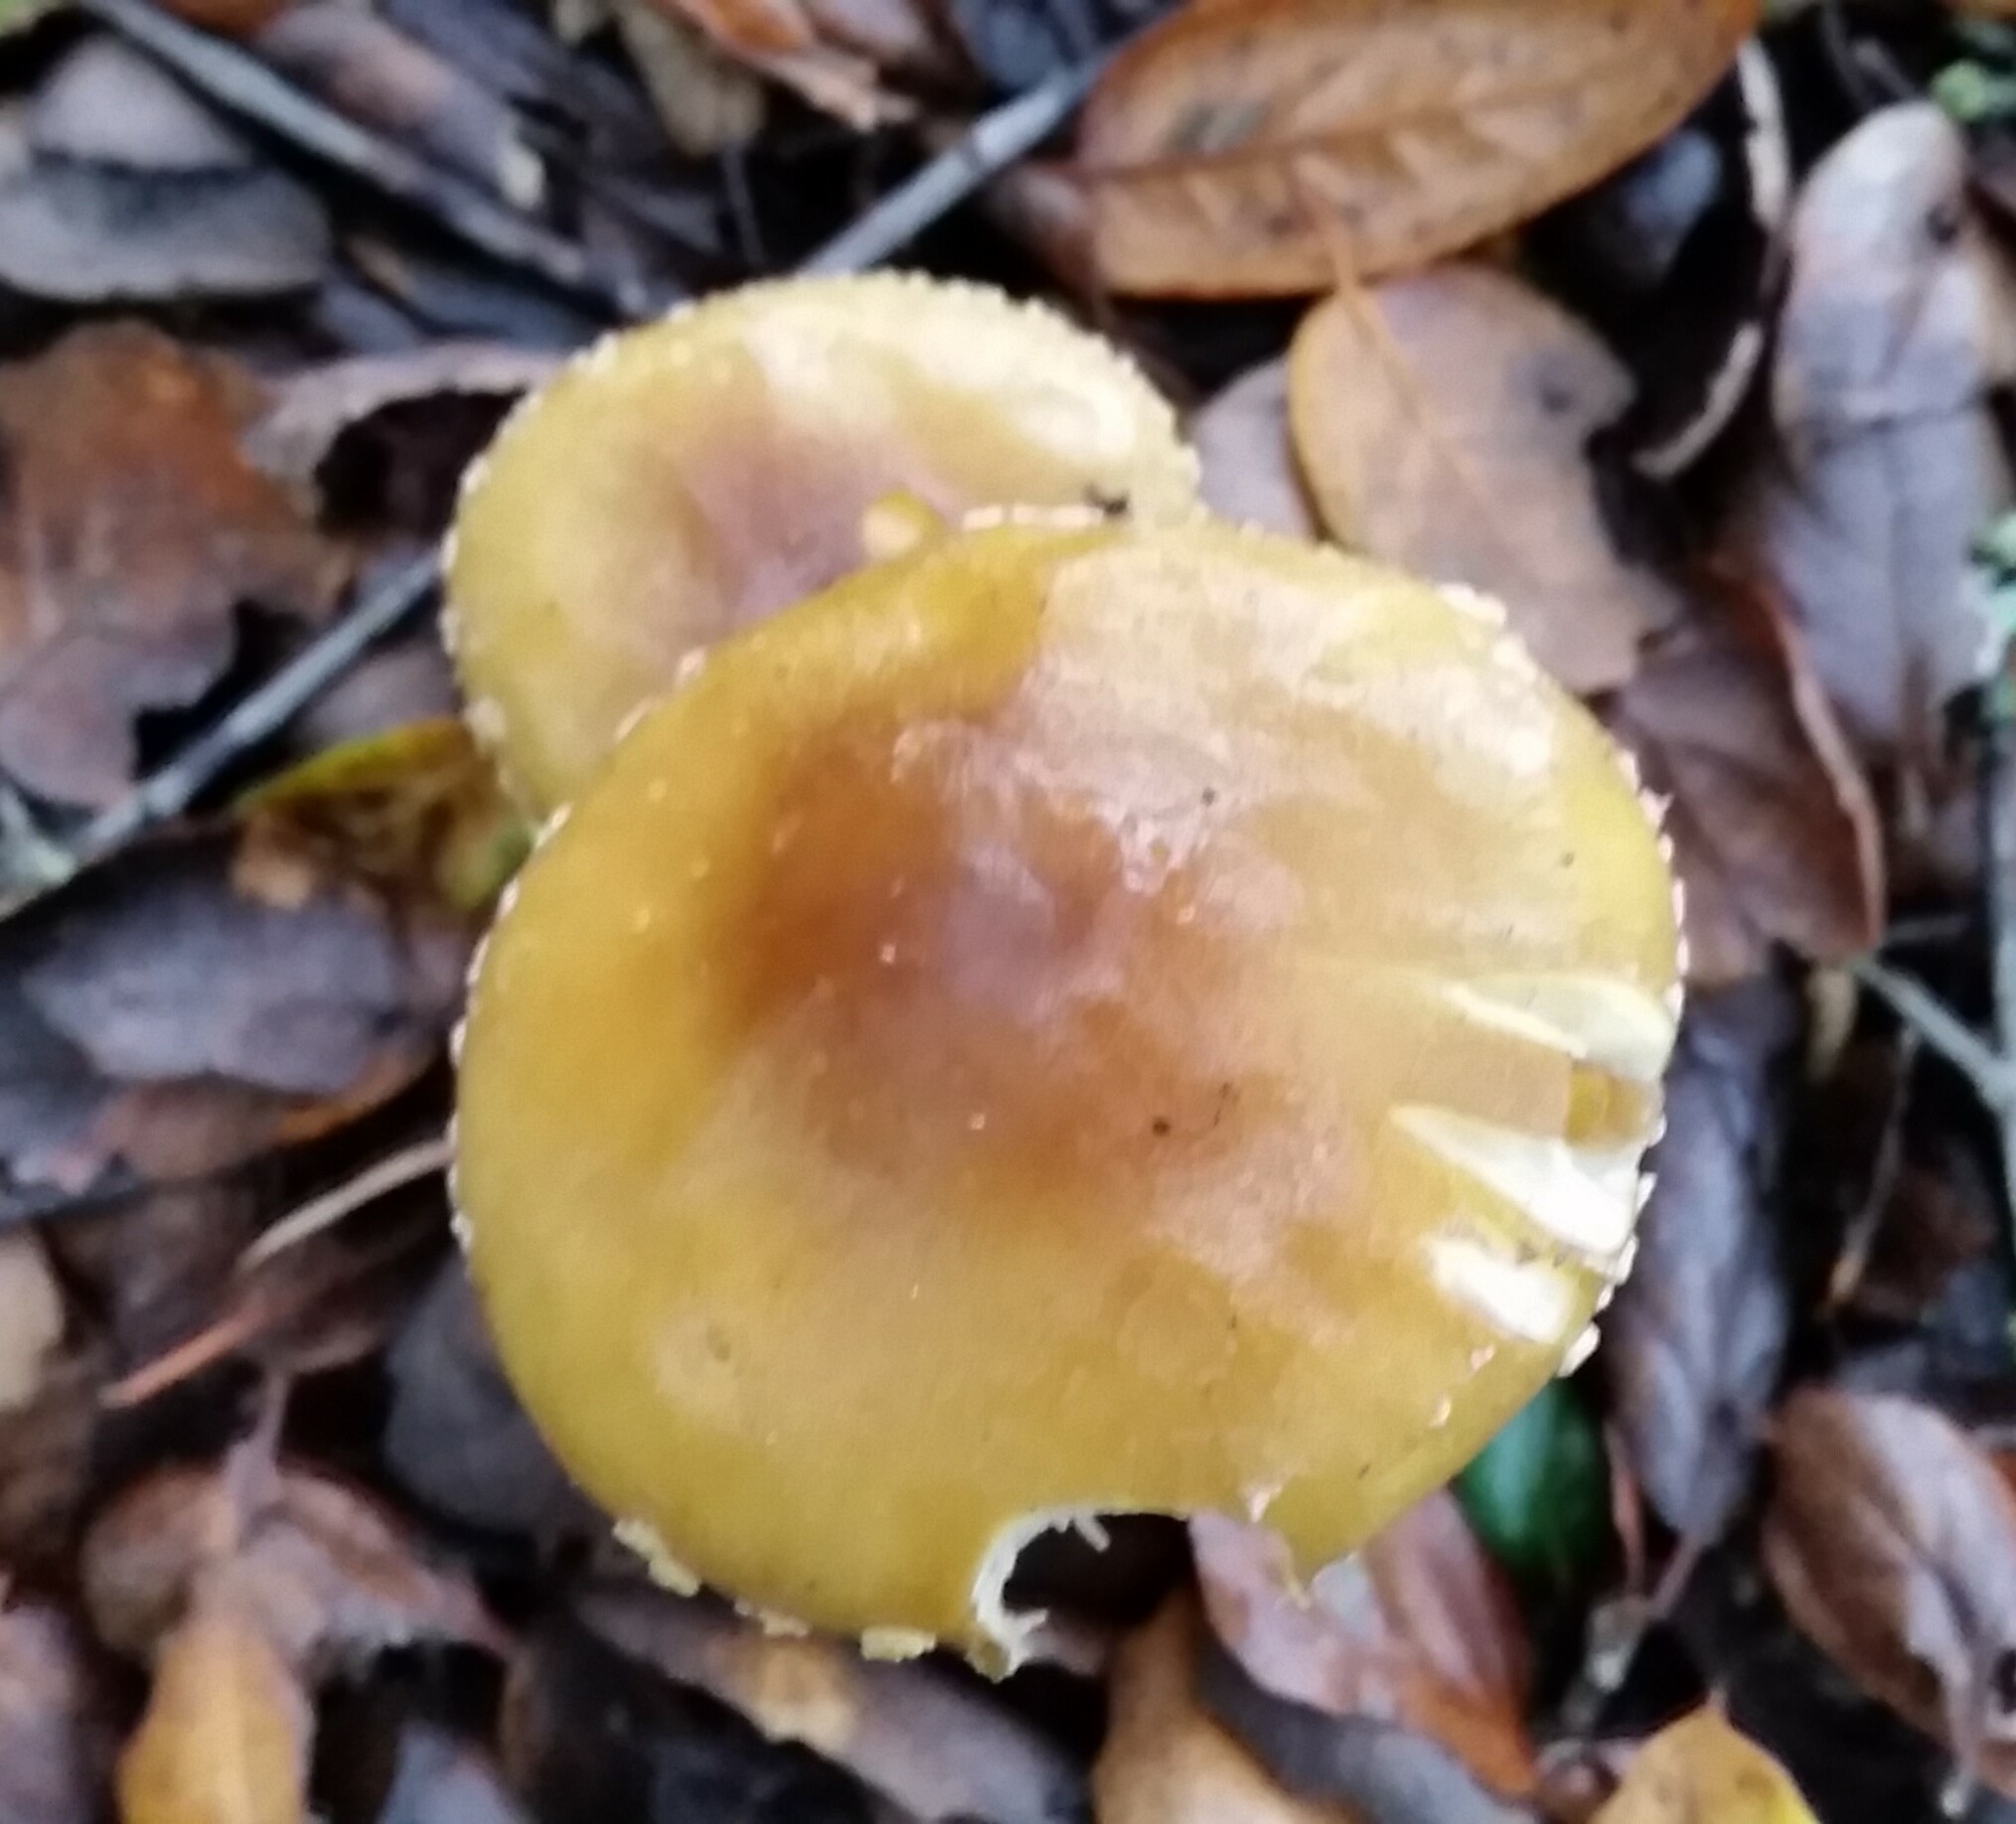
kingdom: Fungi
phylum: Basidiomycota
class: Agaricomycetes
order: Agaricales
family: Amanitaceae
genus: Amanita
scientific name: Amanita augusta
